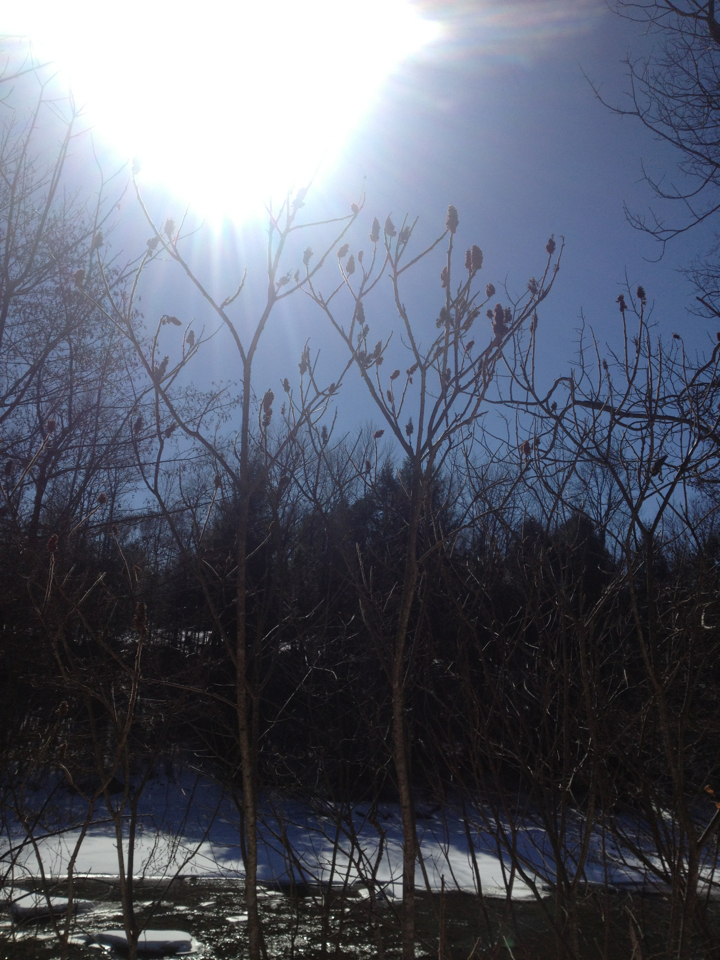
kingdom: Plantae
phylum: Tracheophyta
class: Magnoliopsida
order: Sapindales
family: Anacardiaceae
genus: Rhus
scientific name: Rhus typhina
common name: Staghorn sumac
